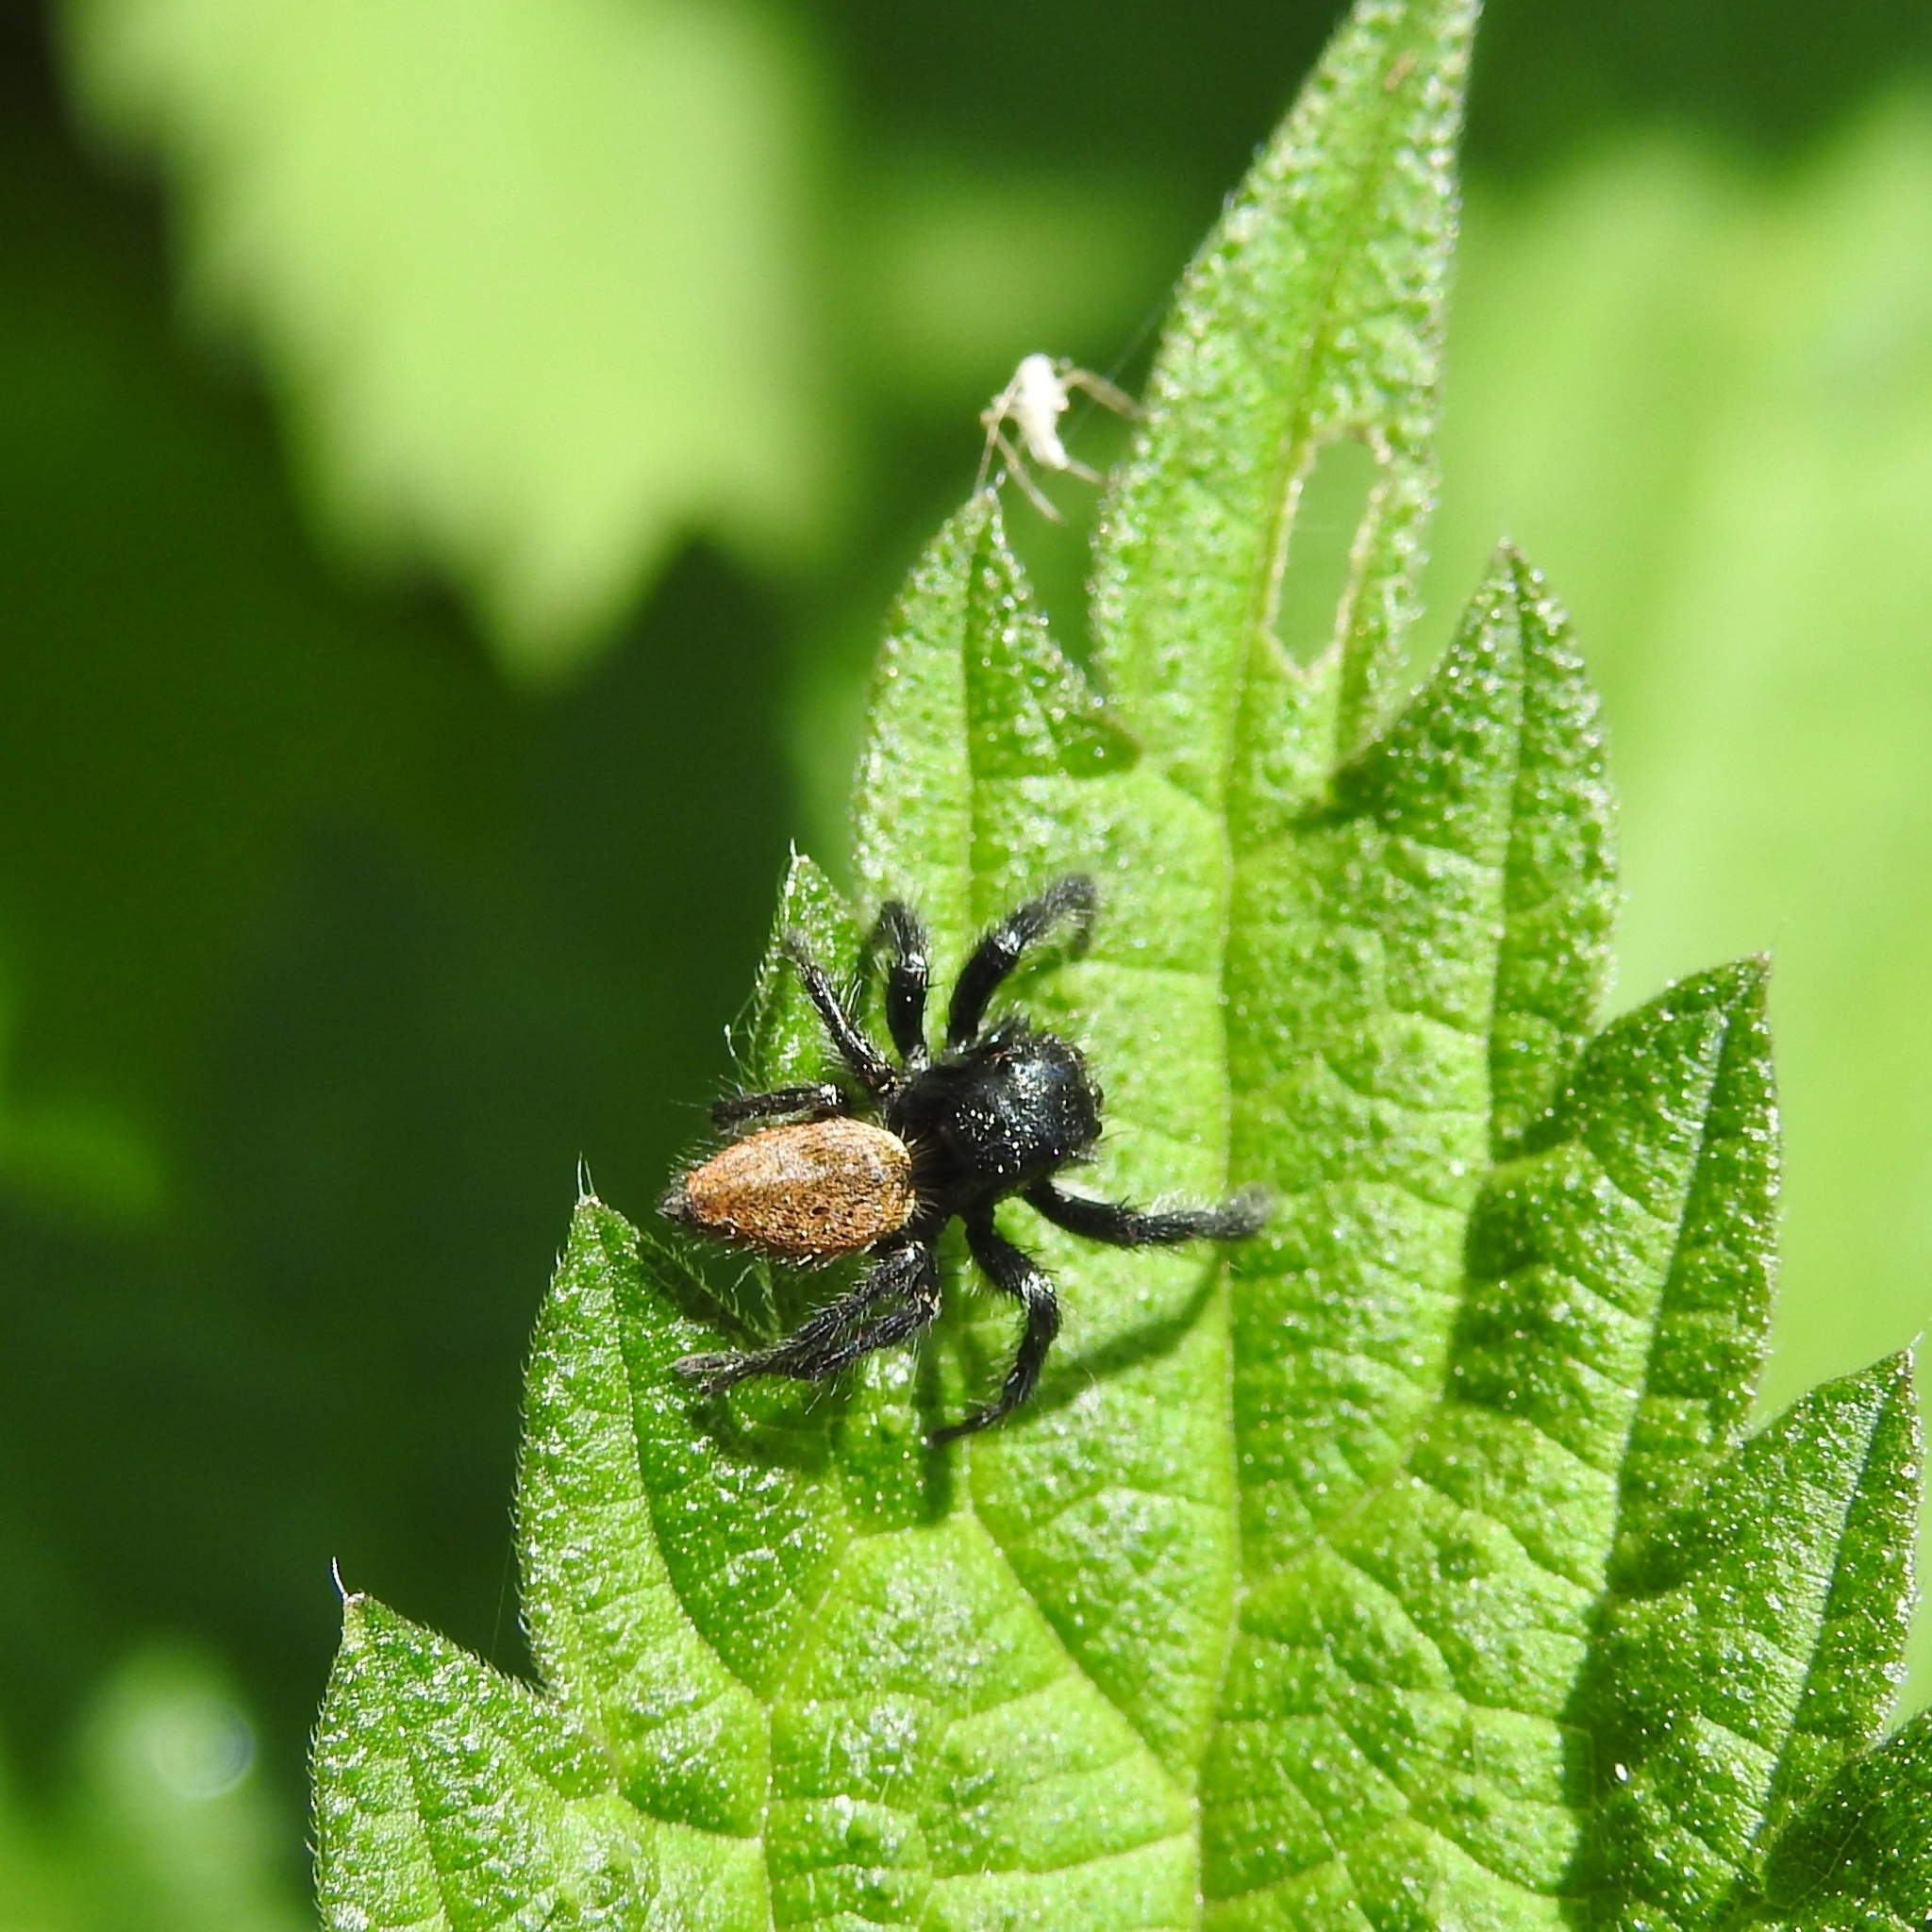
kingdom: Animalia
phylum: Arthropoda
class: Arachnida
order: Araneae
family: Salticidae
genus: Carrhotus
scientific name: Carrhotus xanthogramma
